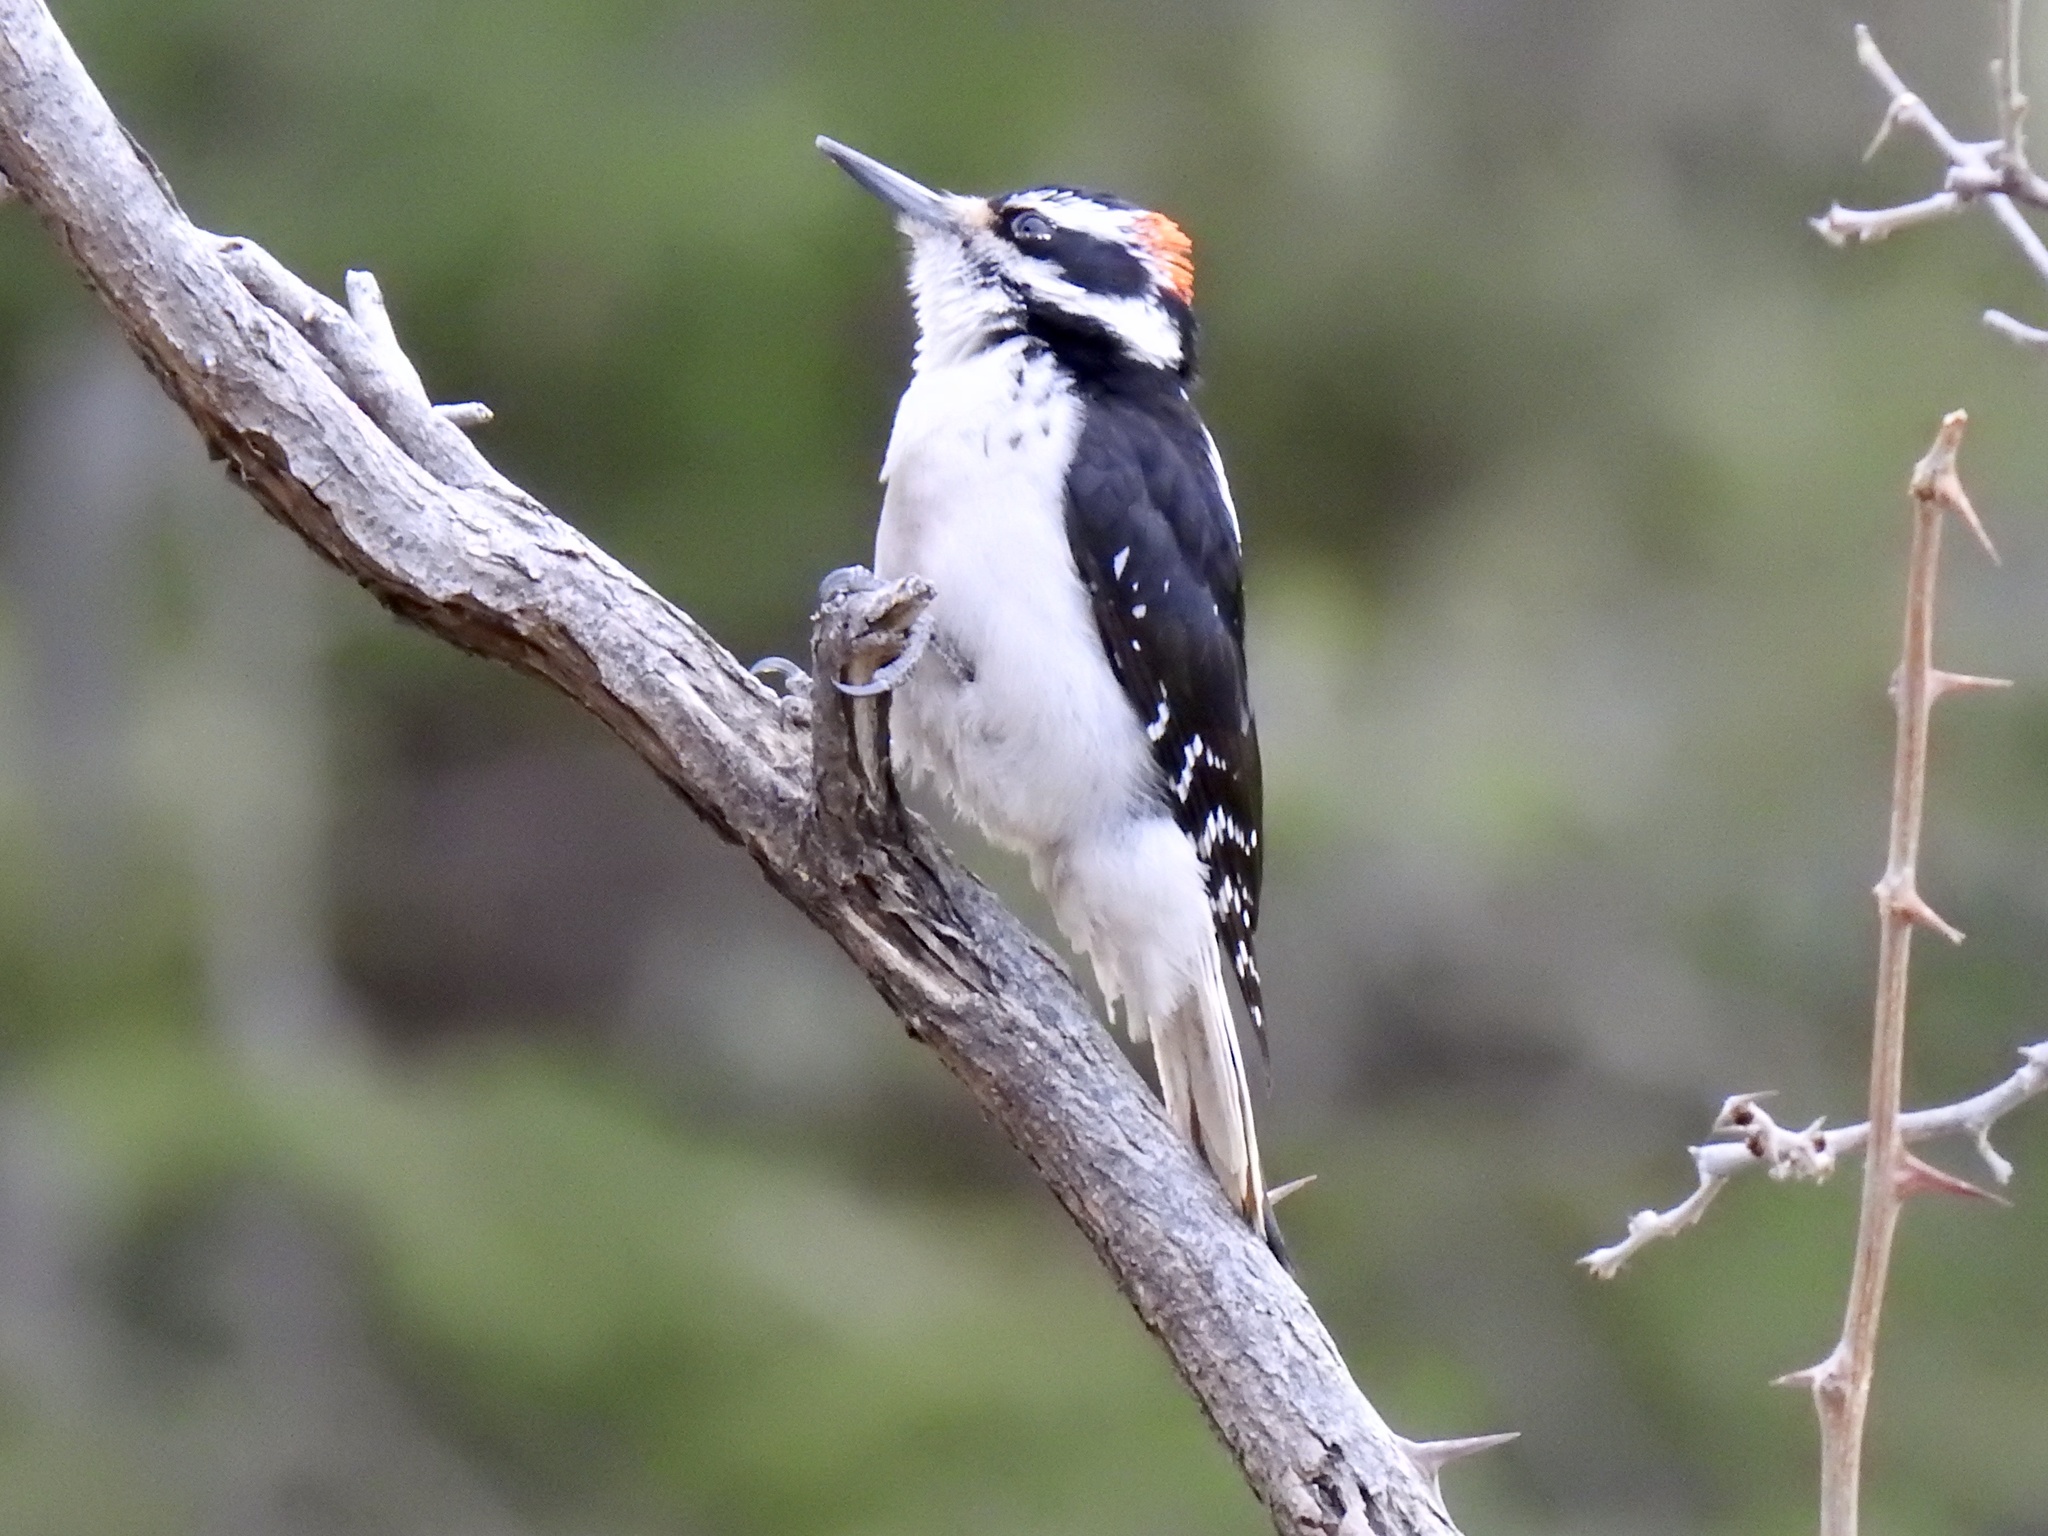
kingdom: Animalia
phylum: Chordata
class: Aves
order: Piciformes
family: Picidae
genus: Leuconotopicus
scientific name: Leuconotopicus villosus
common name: Hairy woodpecker
